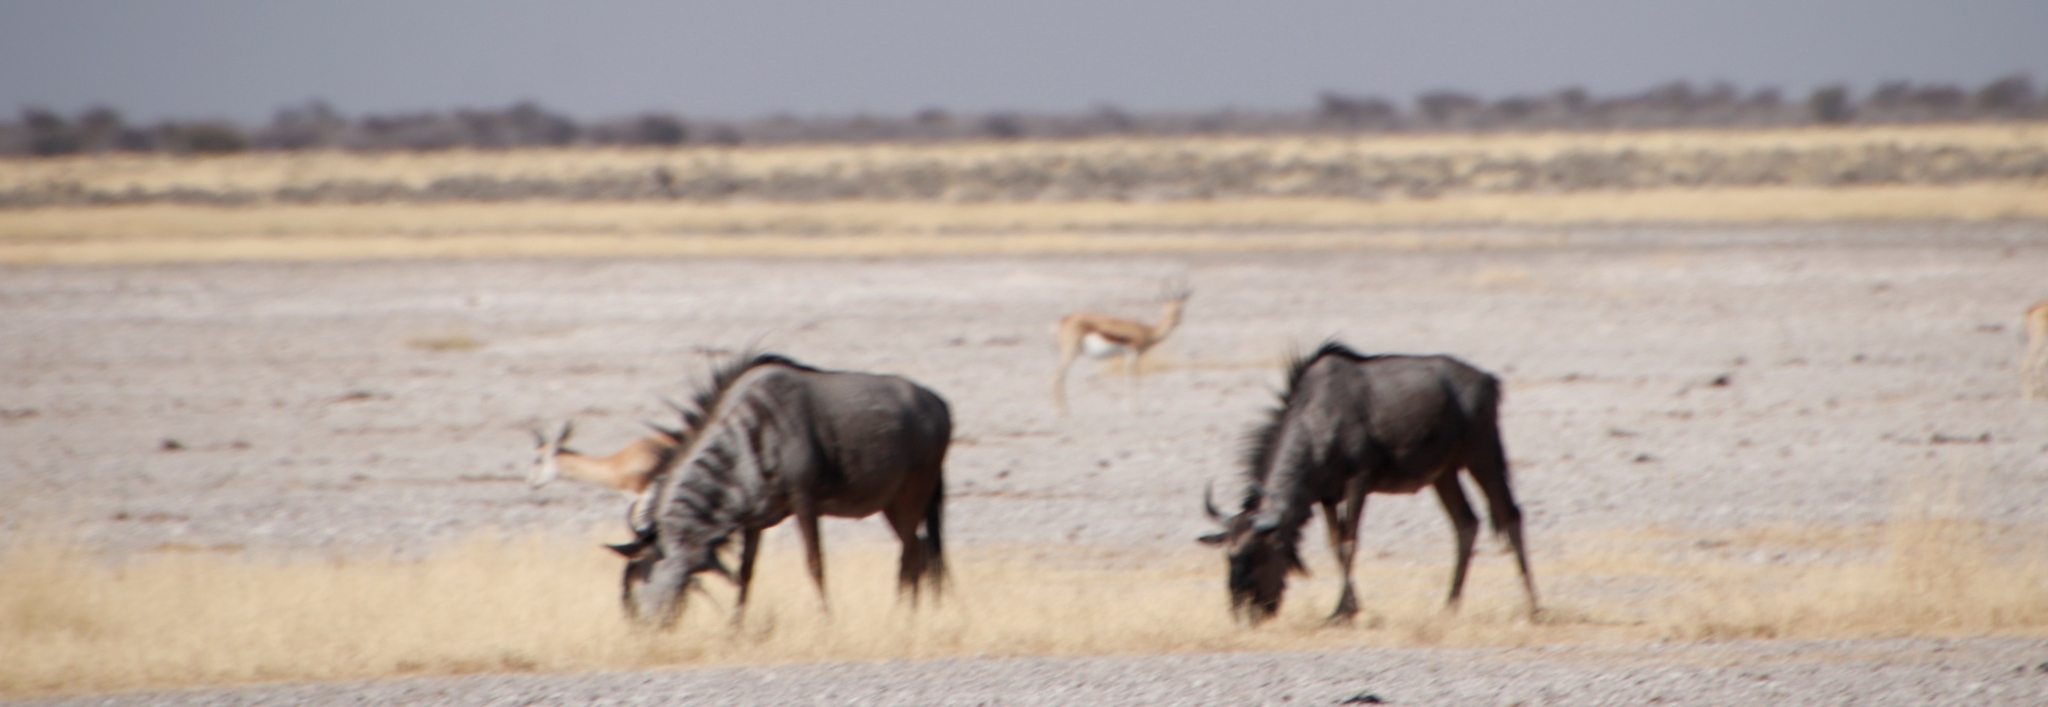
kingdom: Animalia
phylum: Chordata
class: Mammalia
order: Artiodactyla
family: Bovidae
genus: Connochaetes
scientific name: Connochaetes taurinus
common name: Blue wildebeest
